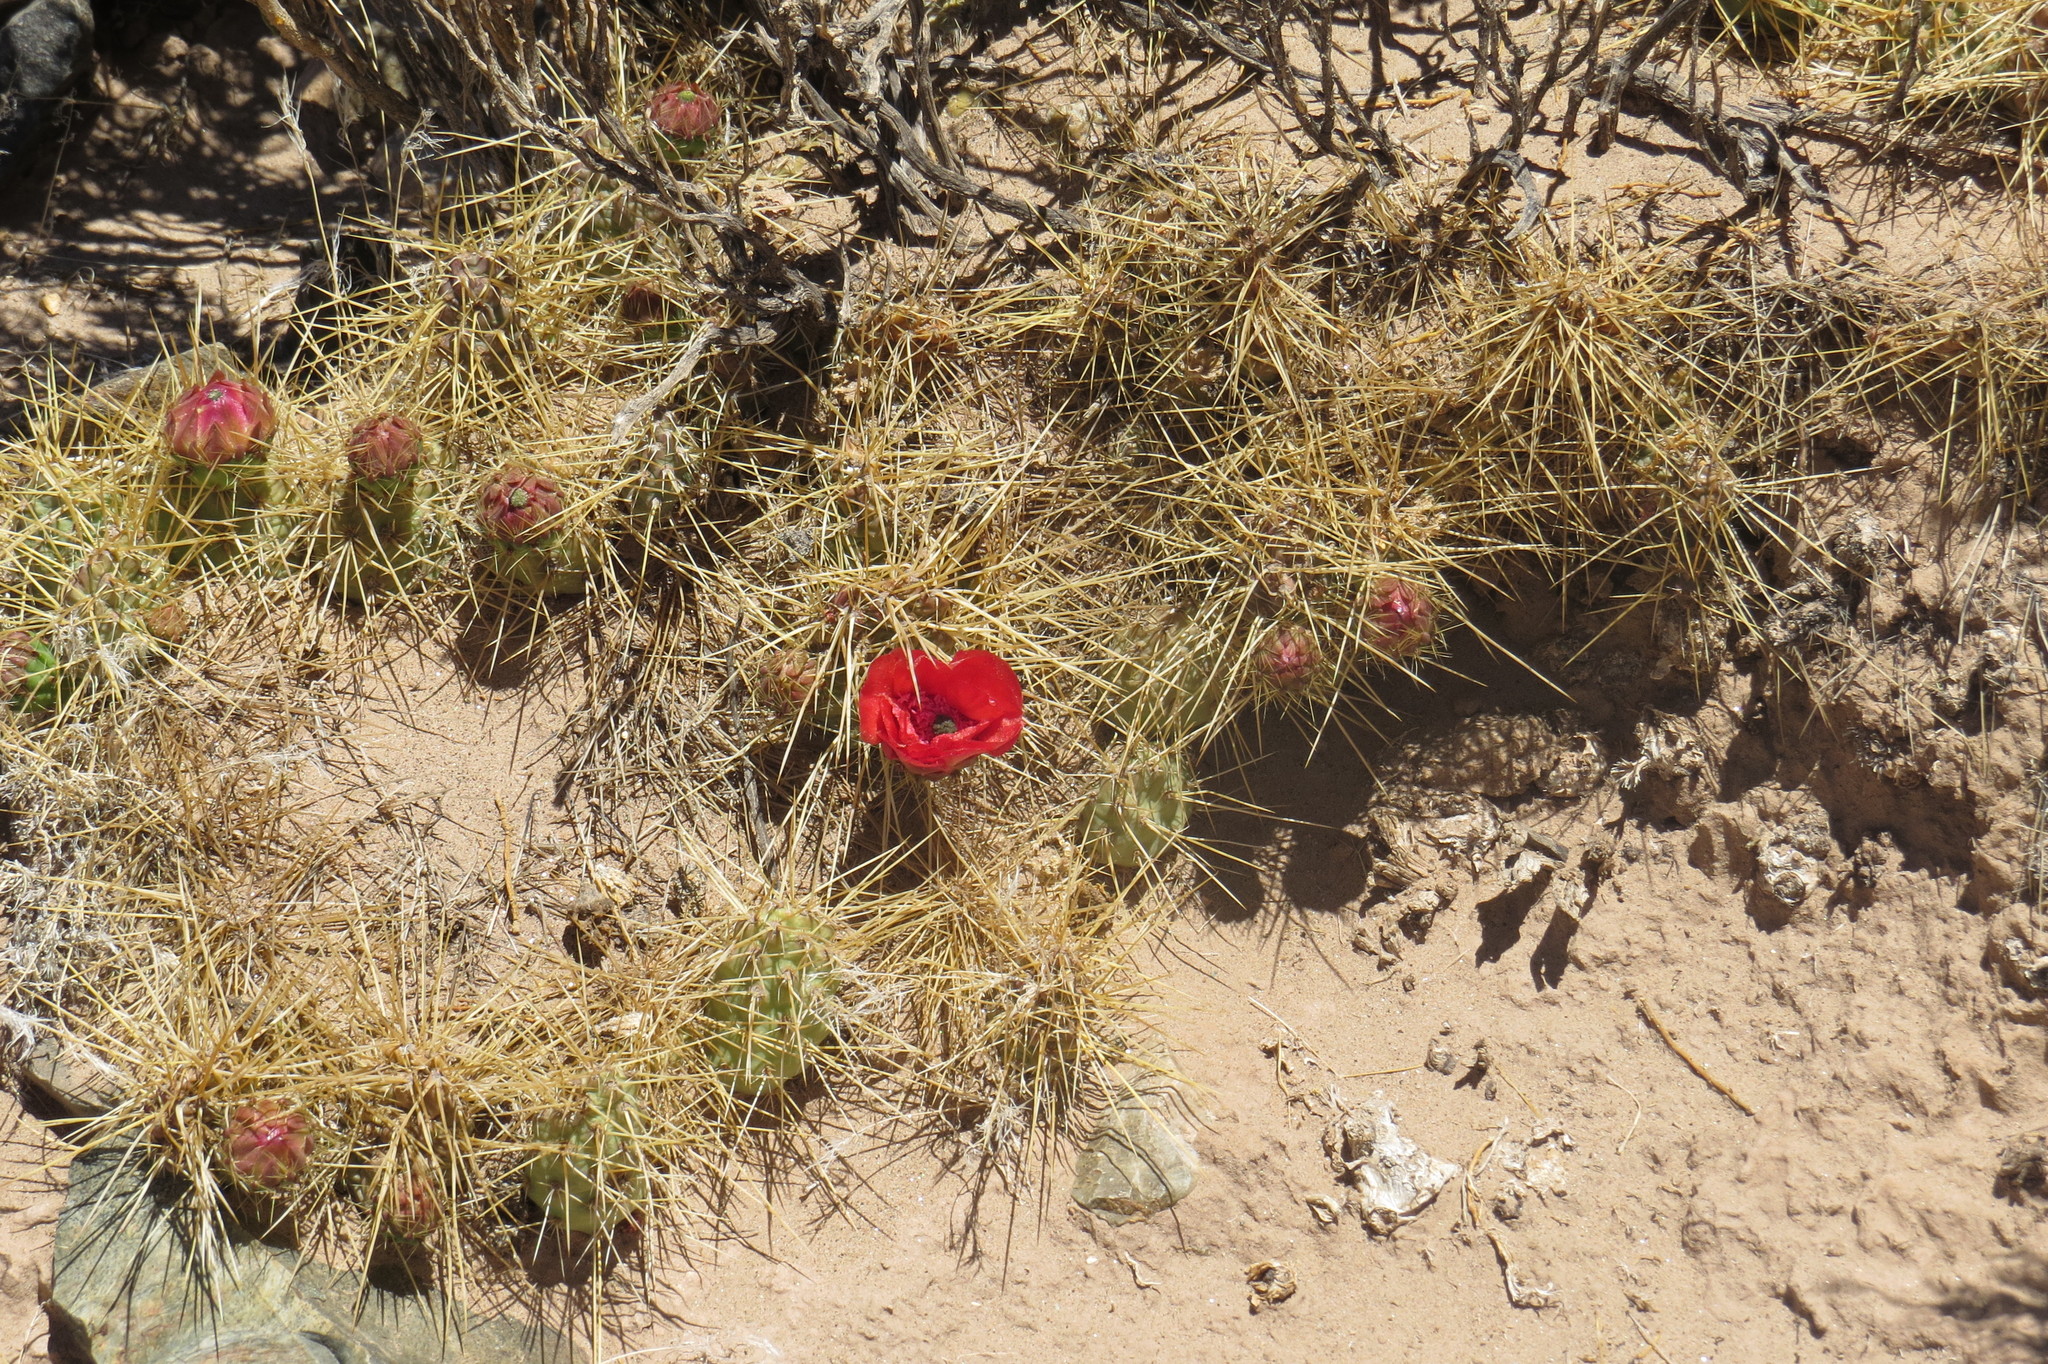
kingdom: Plantae
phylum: Tracheophyta
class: Magnoliopsida
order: Caryophyllales
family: Cactaceae
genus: Airampoa
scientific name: Airampoa corrugata
